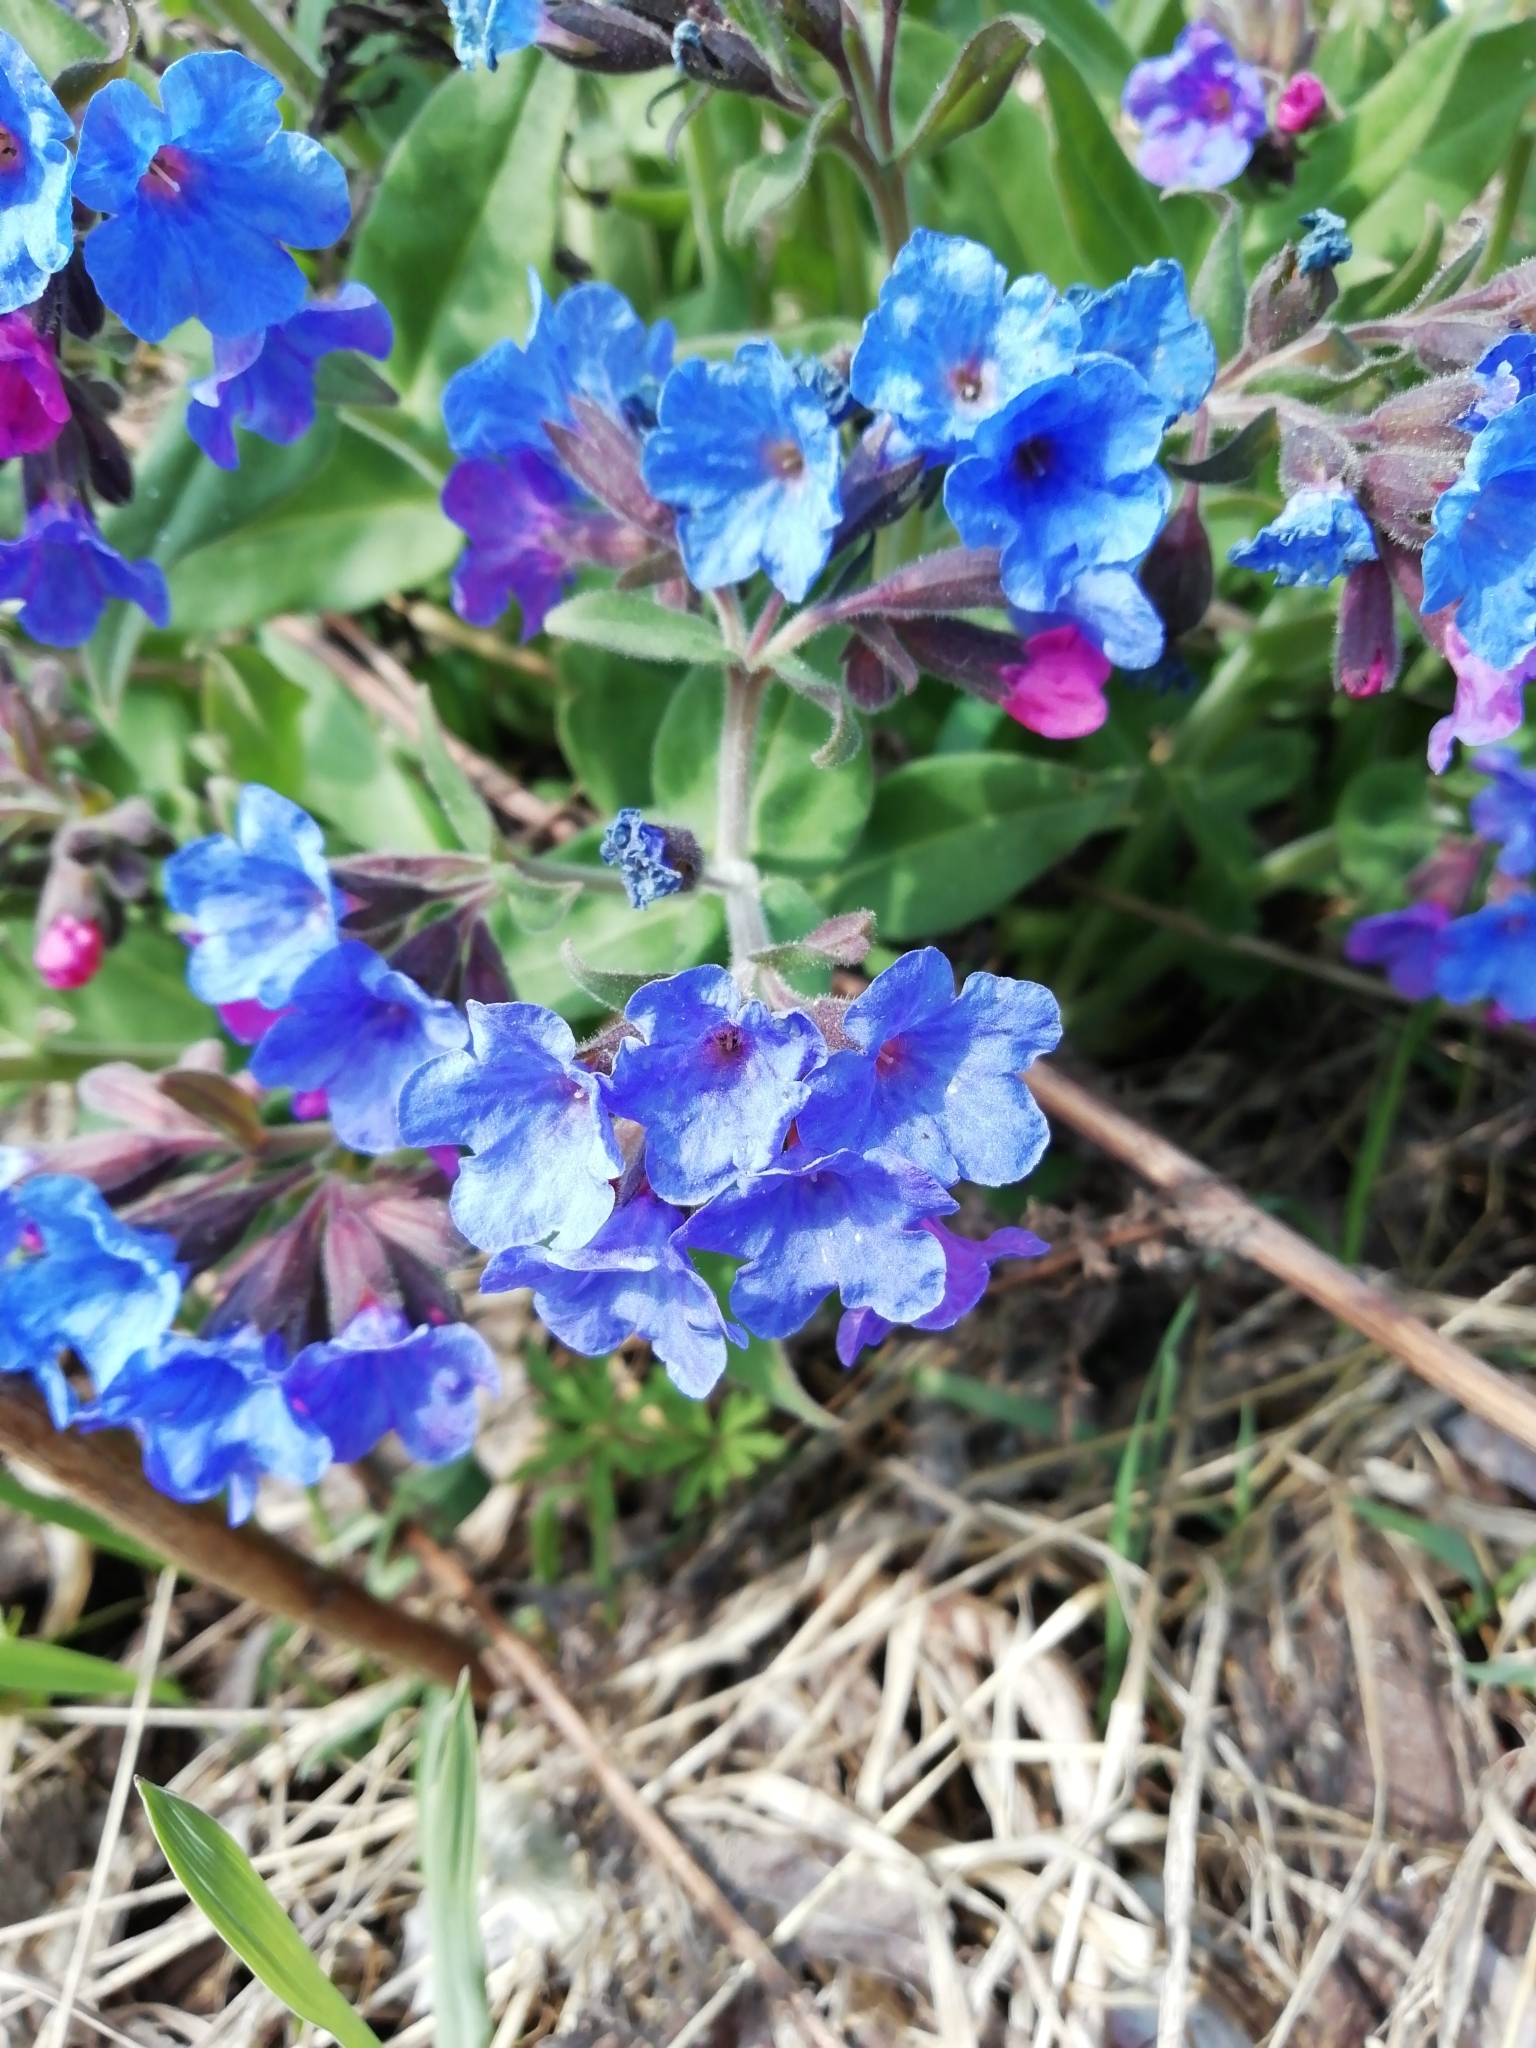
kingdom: Plantae
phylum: Tracheophyta
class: Magnoliopsida
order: Boraginales
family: Boraginaceae
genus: Pulmonaria
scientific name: Pulmonaria mollis
